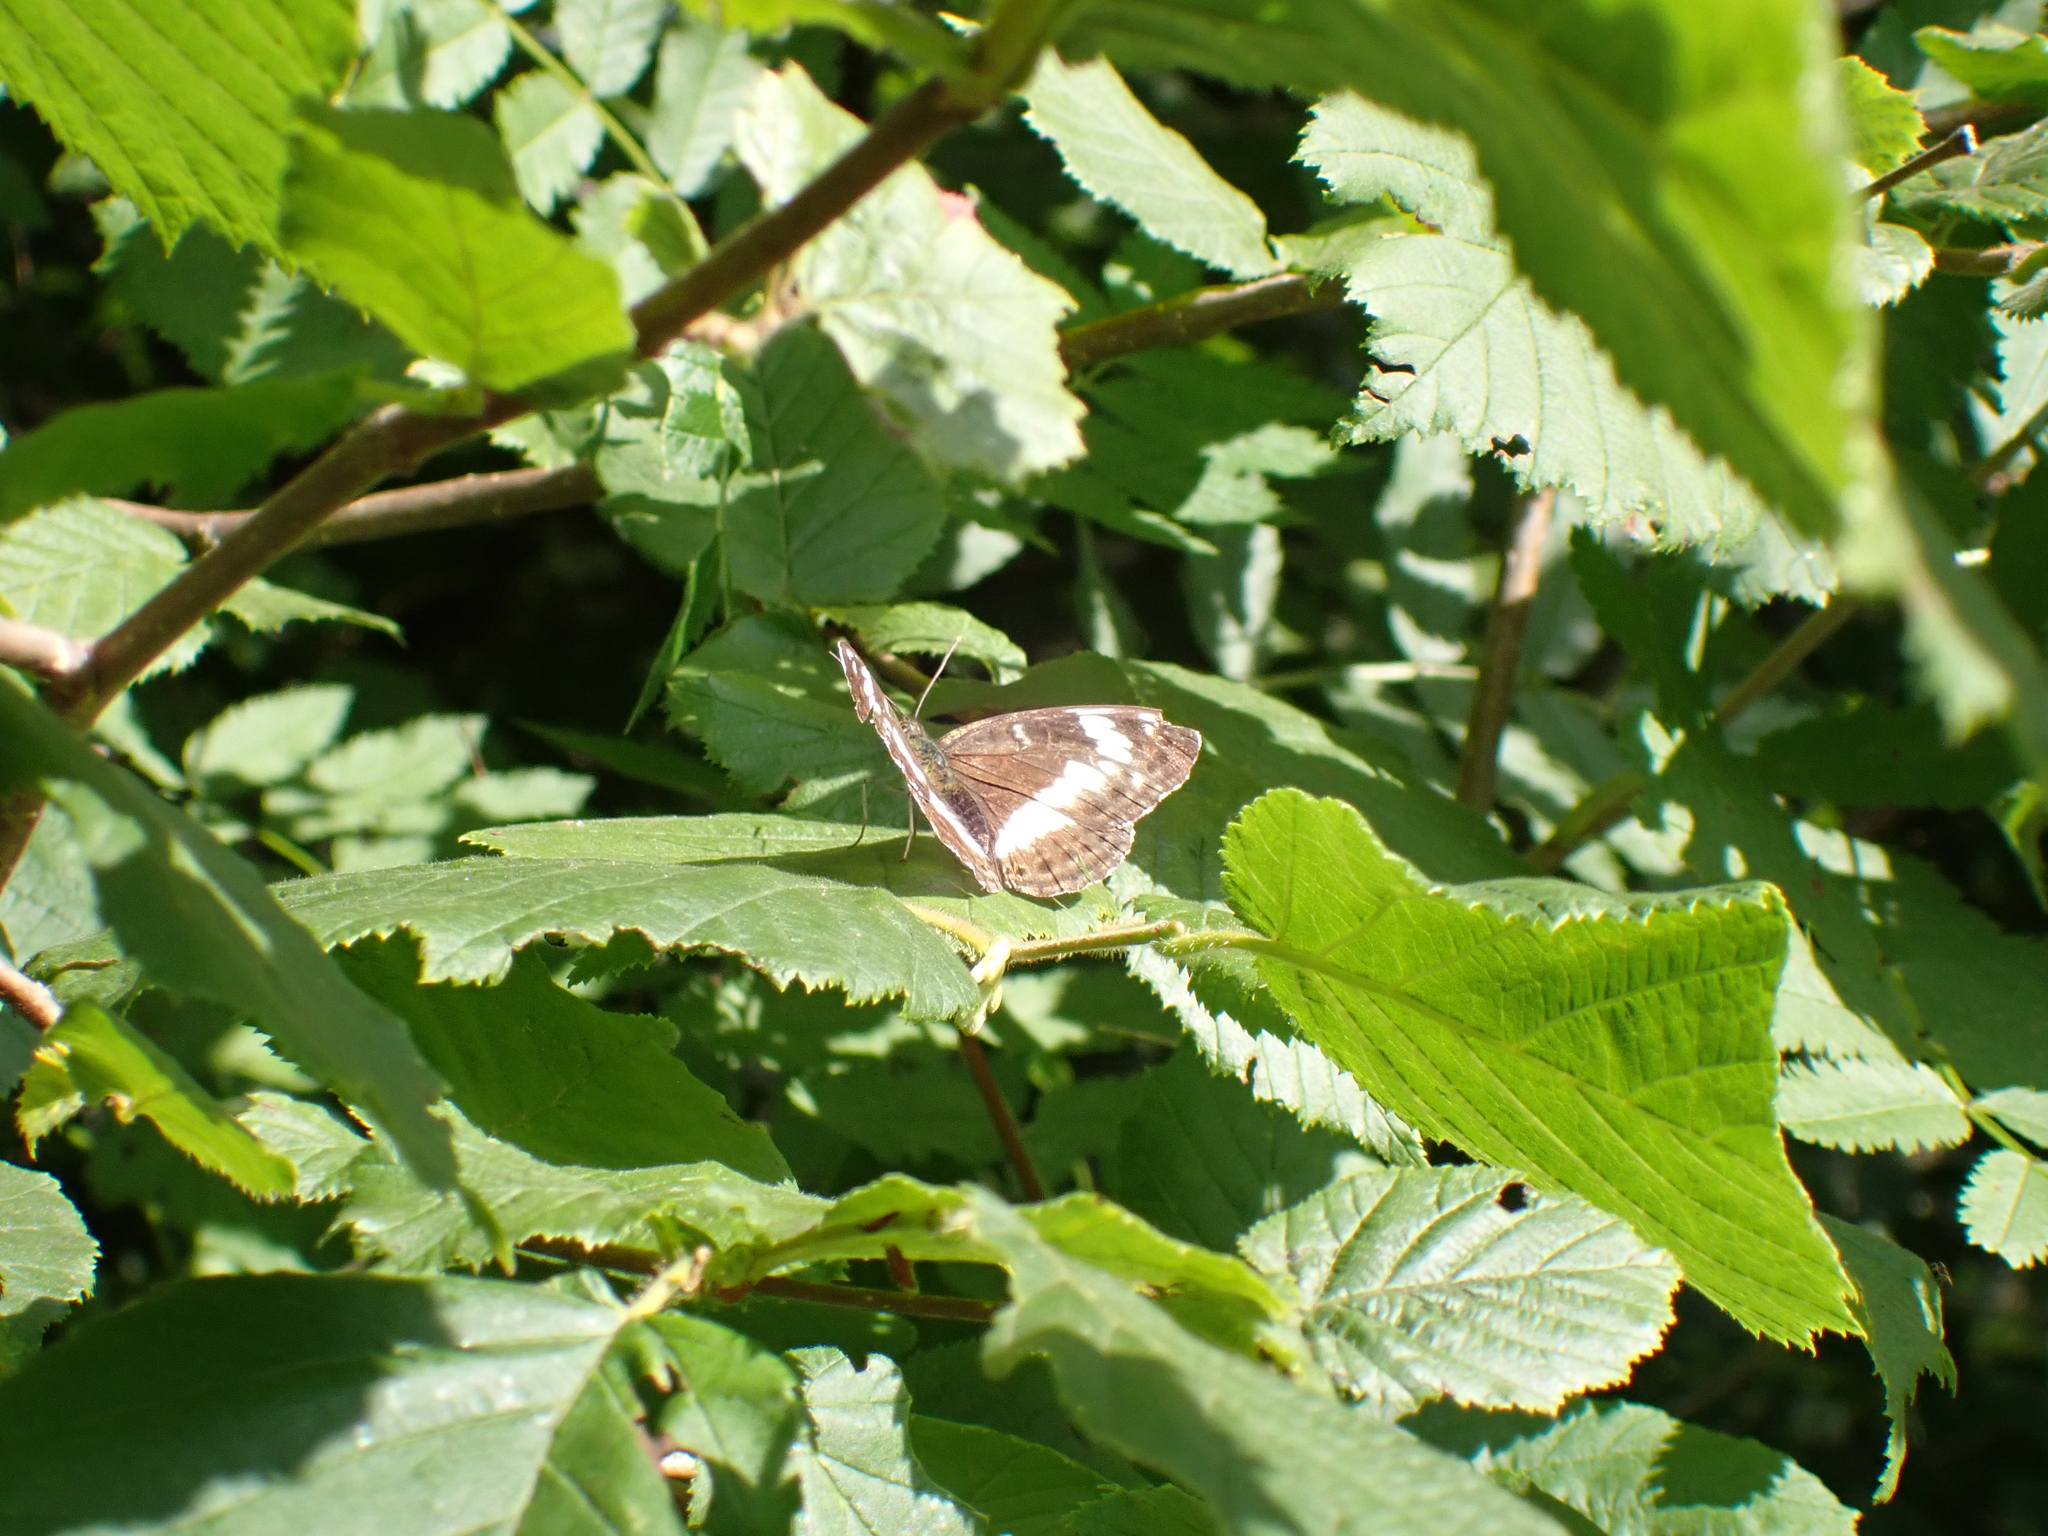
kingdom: Animalia
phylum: Arthropoda
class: Insecta
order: Lepidoptera
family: Nymphalidae
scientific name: Nymphalidae
